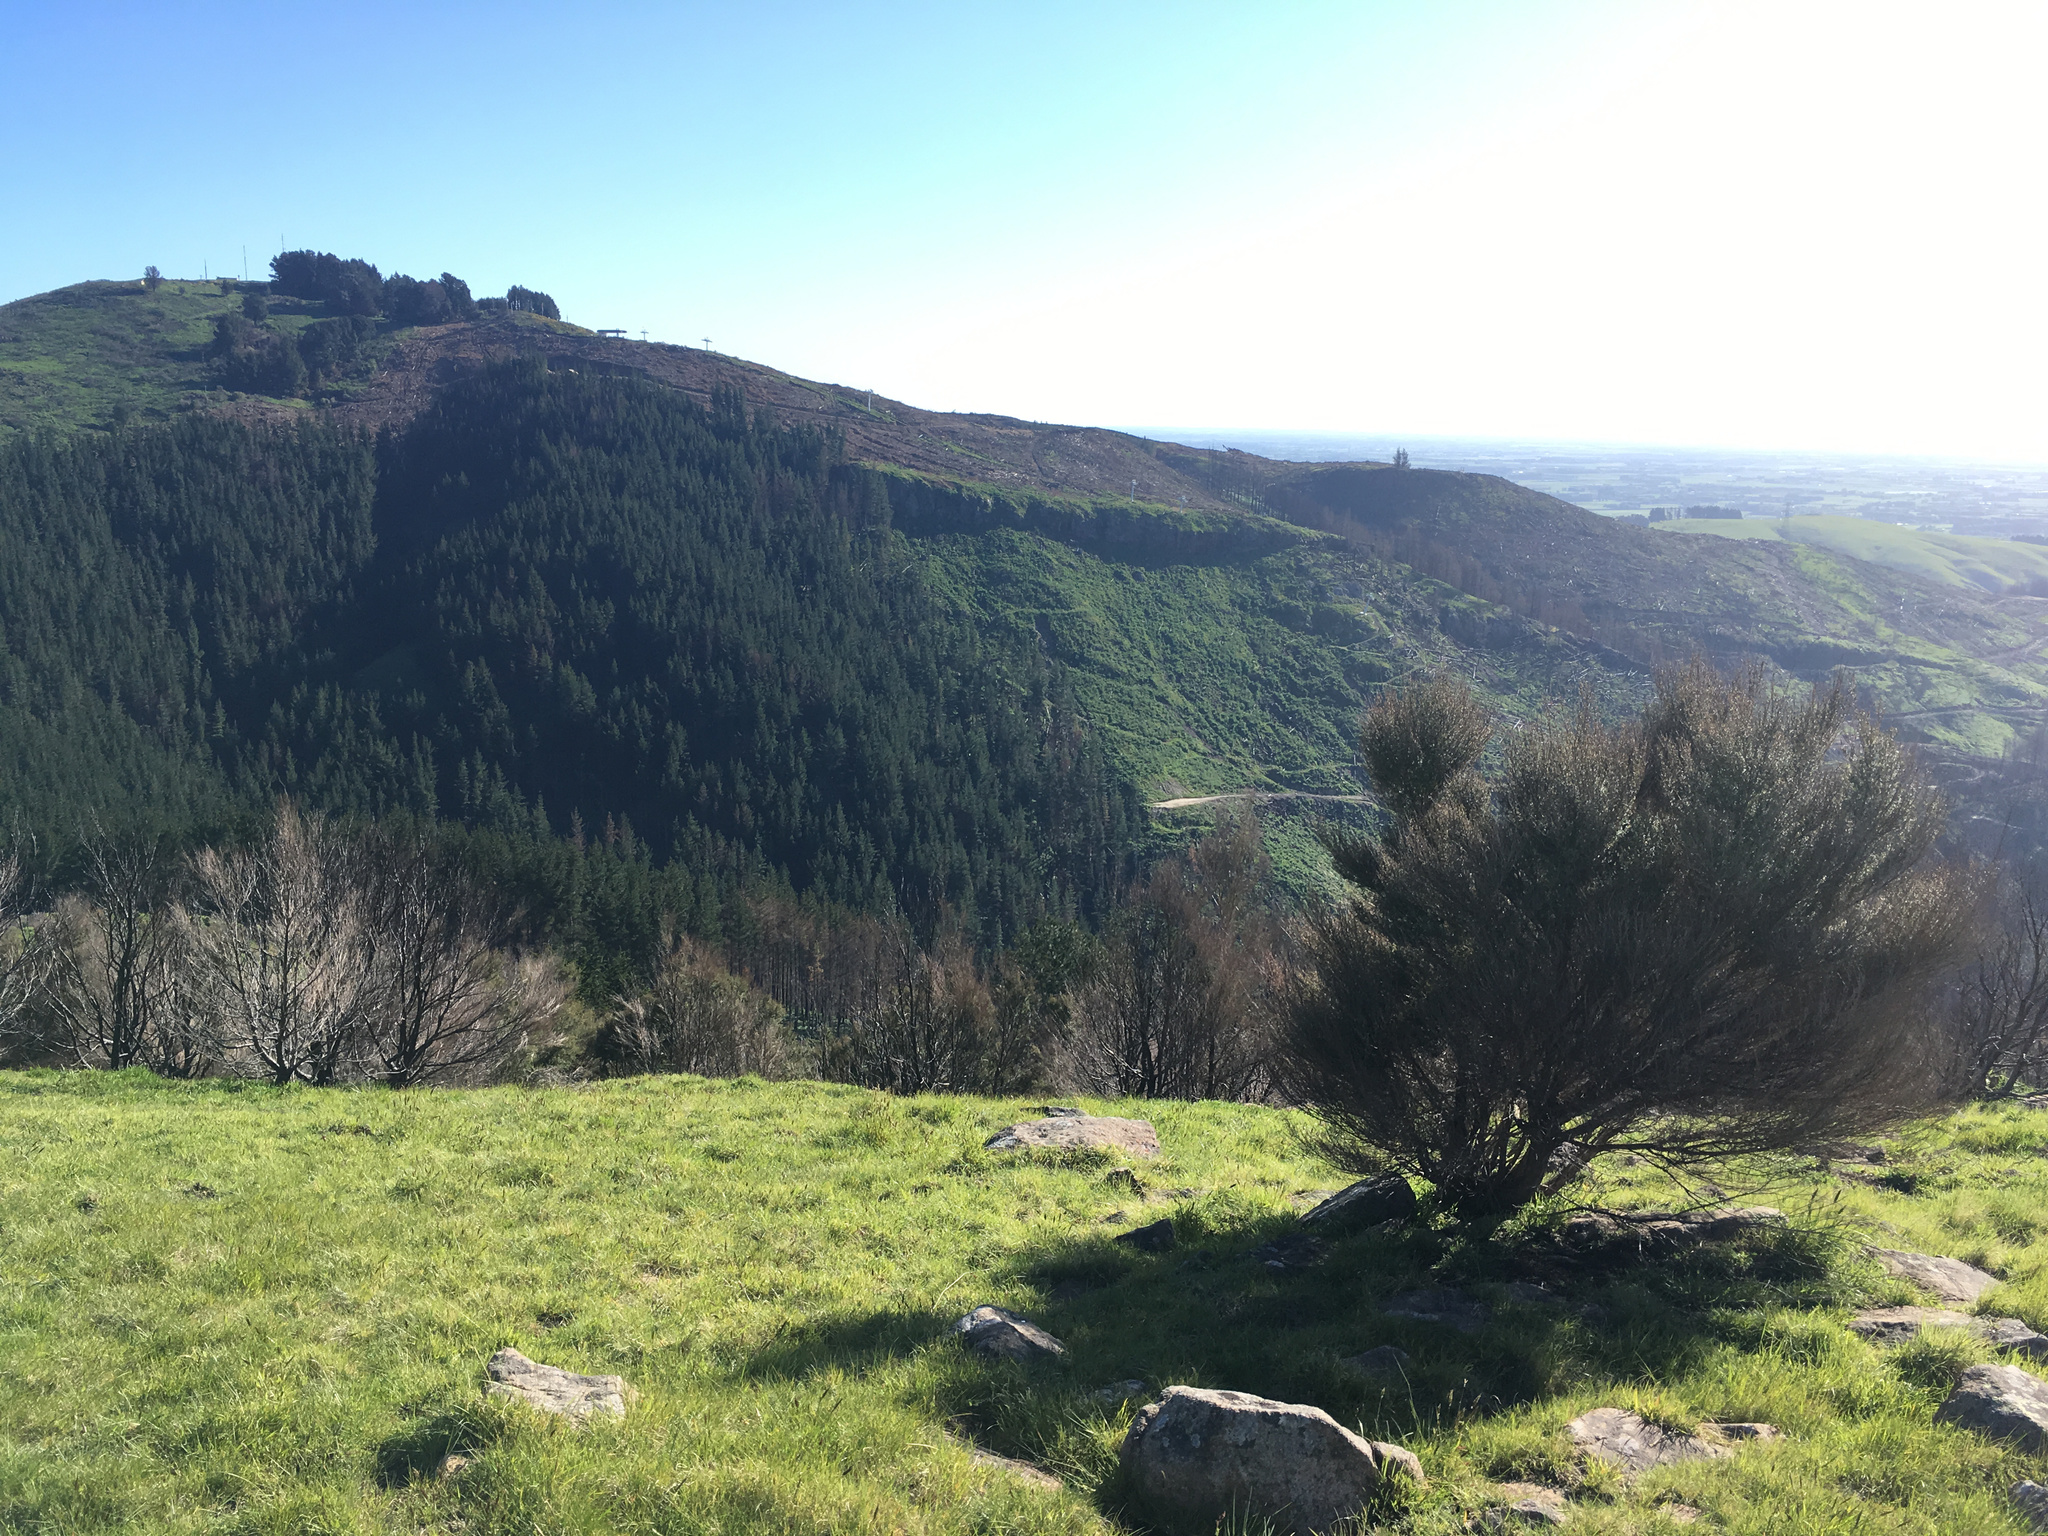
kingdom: Plantae
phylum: Tracheophyta
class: Magnoliopsida
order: Myrtales
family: Myrtaceae
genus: Kunzea
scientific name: Kunzea robusta
